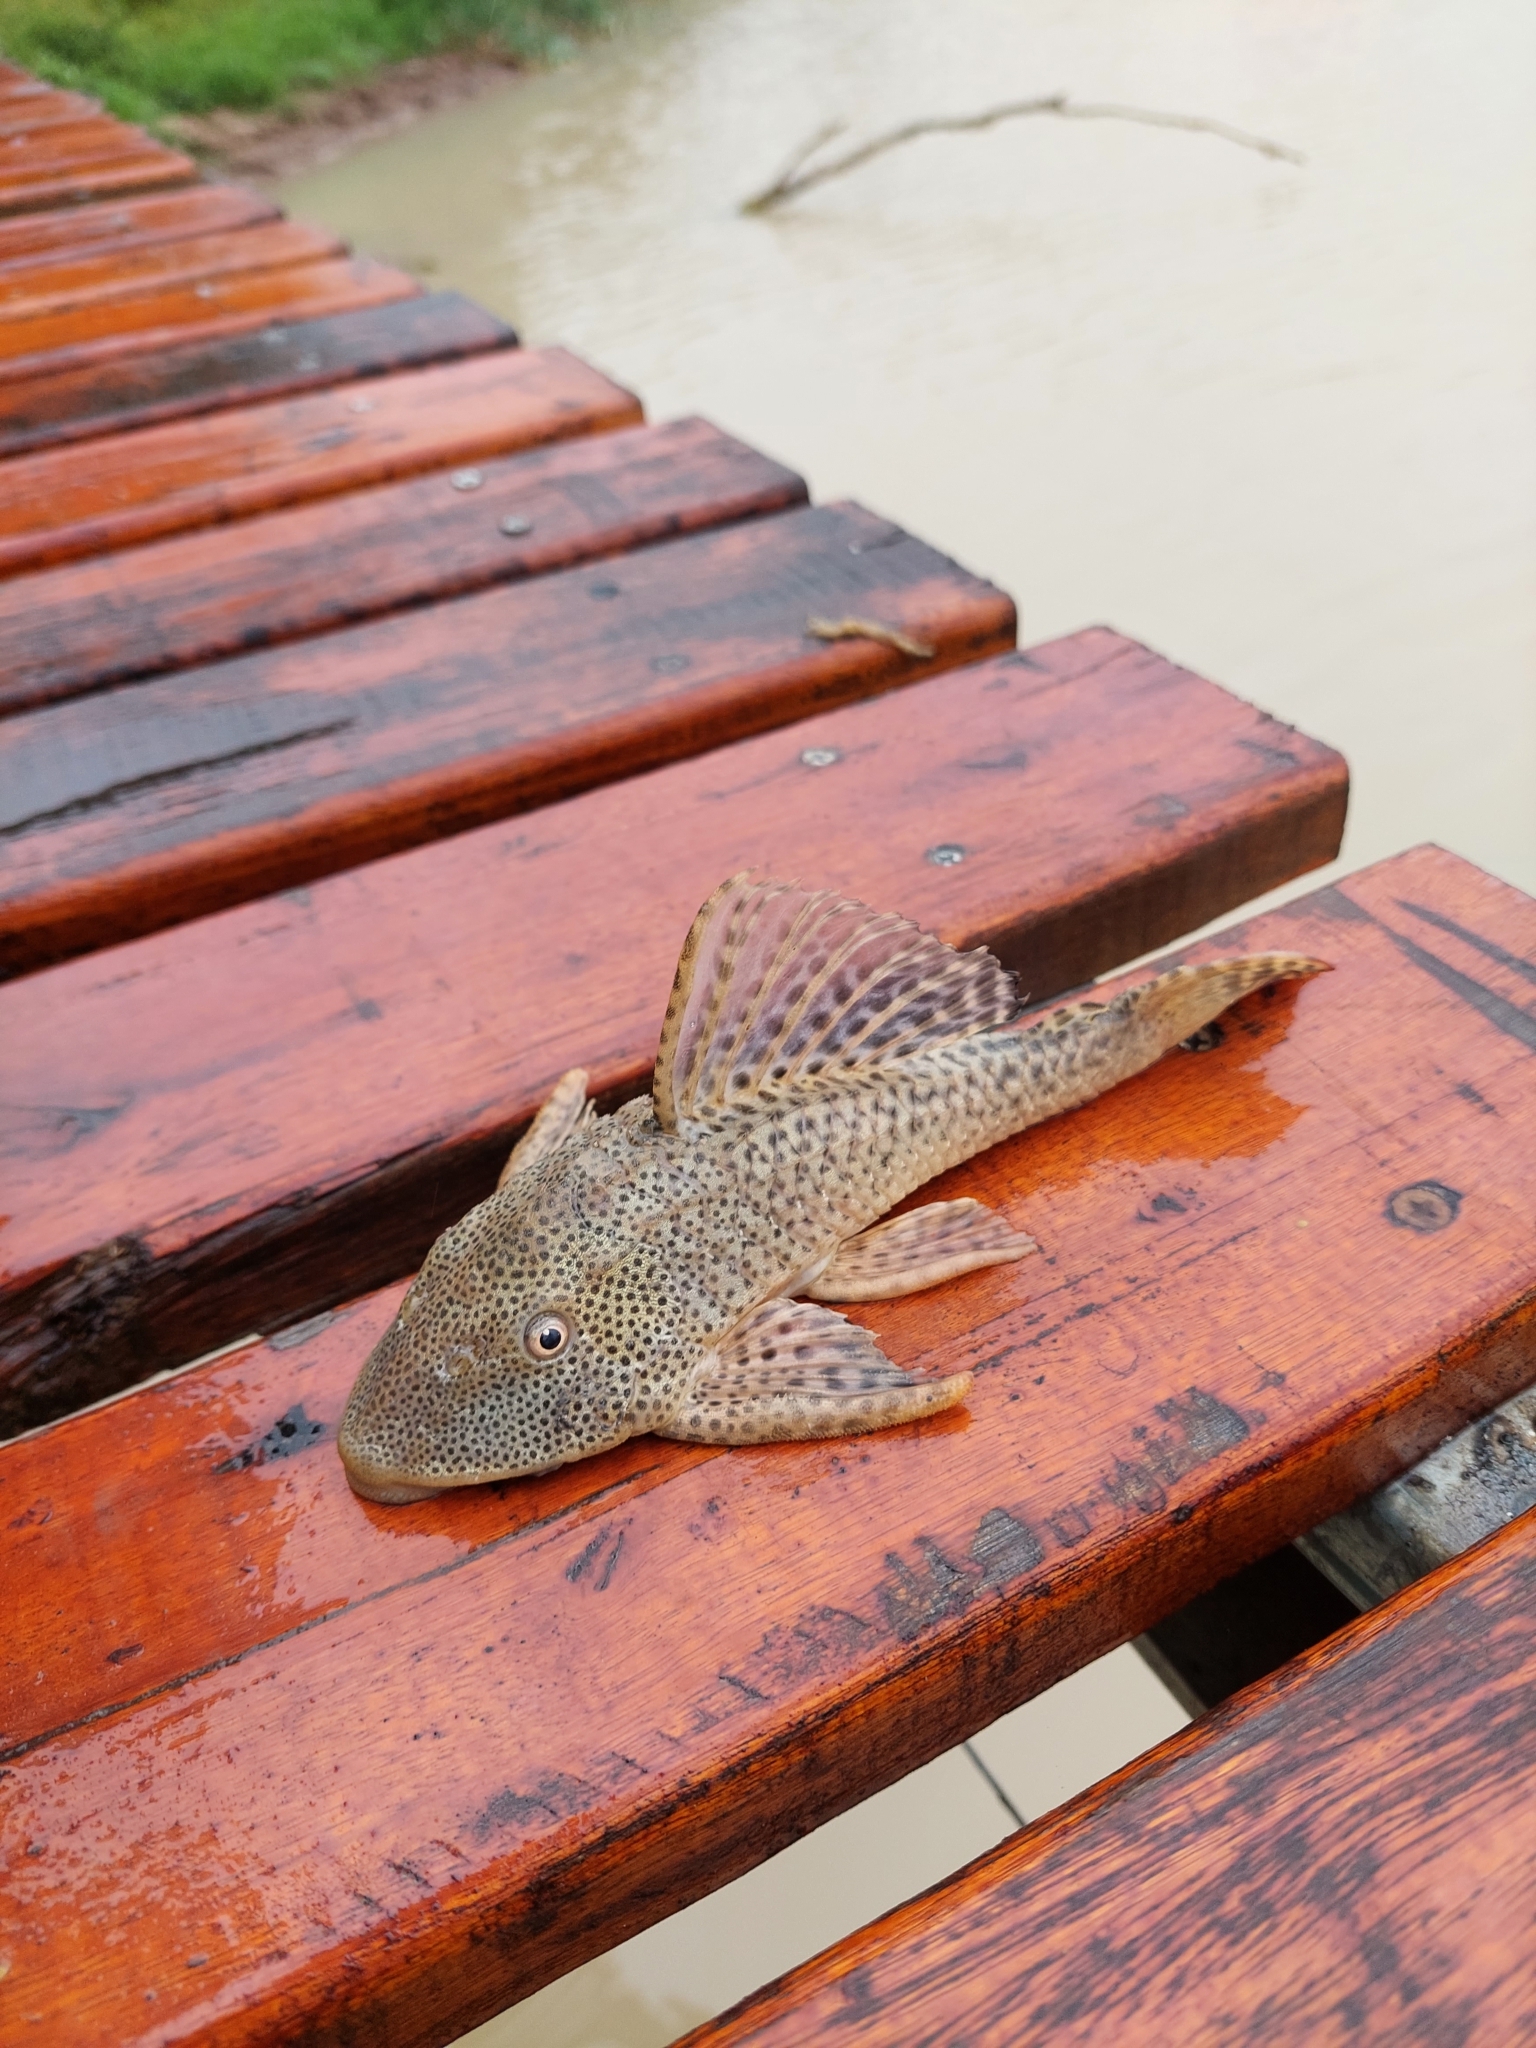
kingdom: Animalia
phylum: Chordata
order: Siluriformes
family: Loricariidae
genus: Hypostomus
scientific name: Hypostomus formosae
